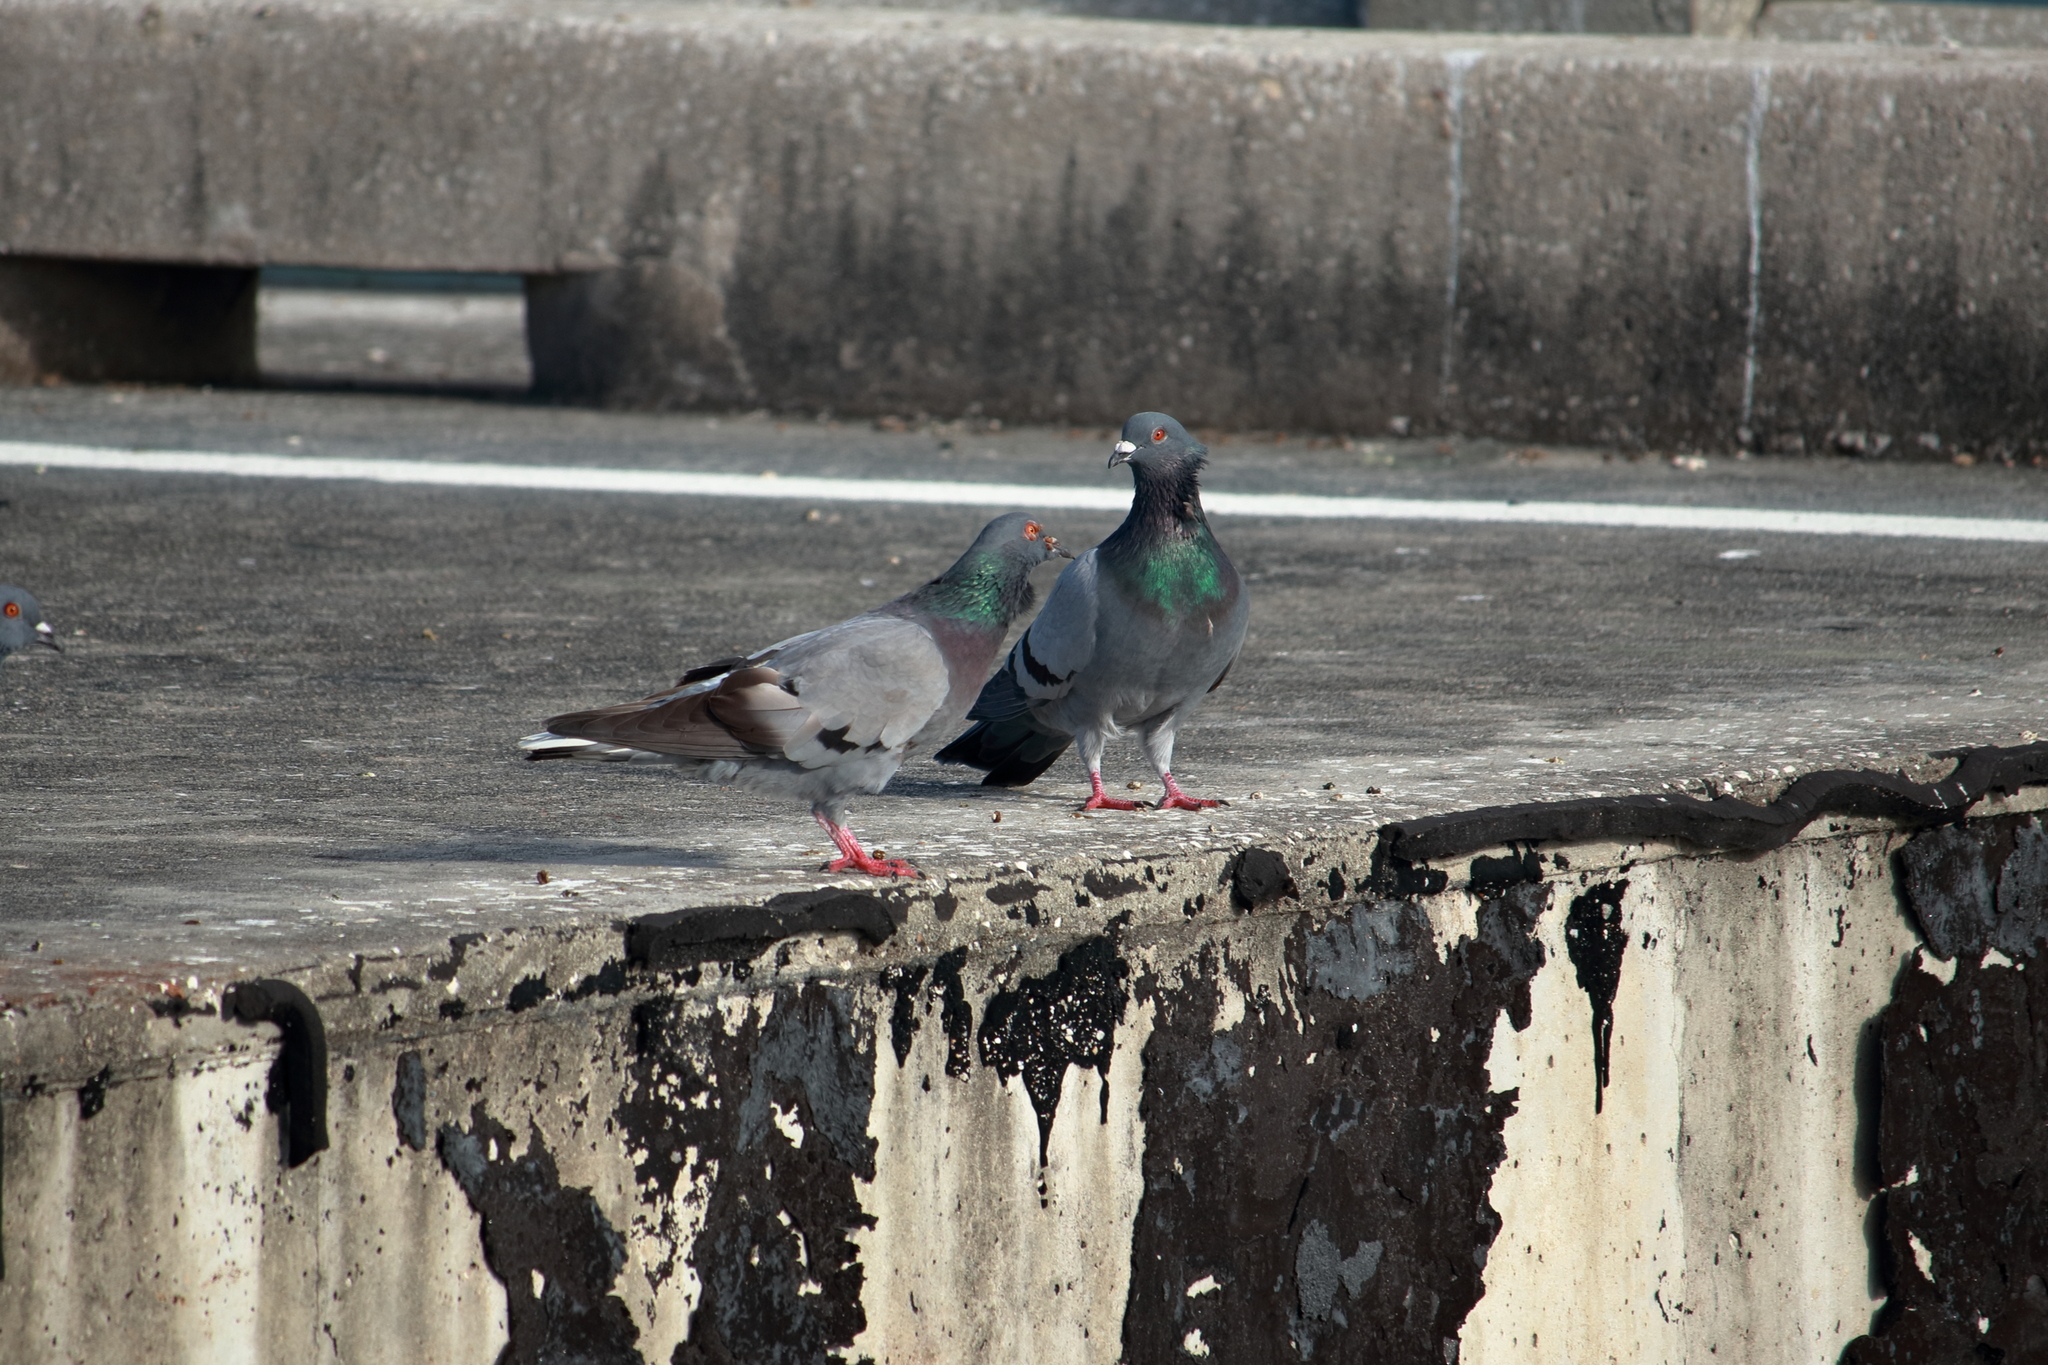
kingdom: Animalia
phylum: Chordata
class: Aves
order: Columbiformes
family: Columbidae
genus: Columba
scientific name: Columba livia
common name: Rock pigeon
